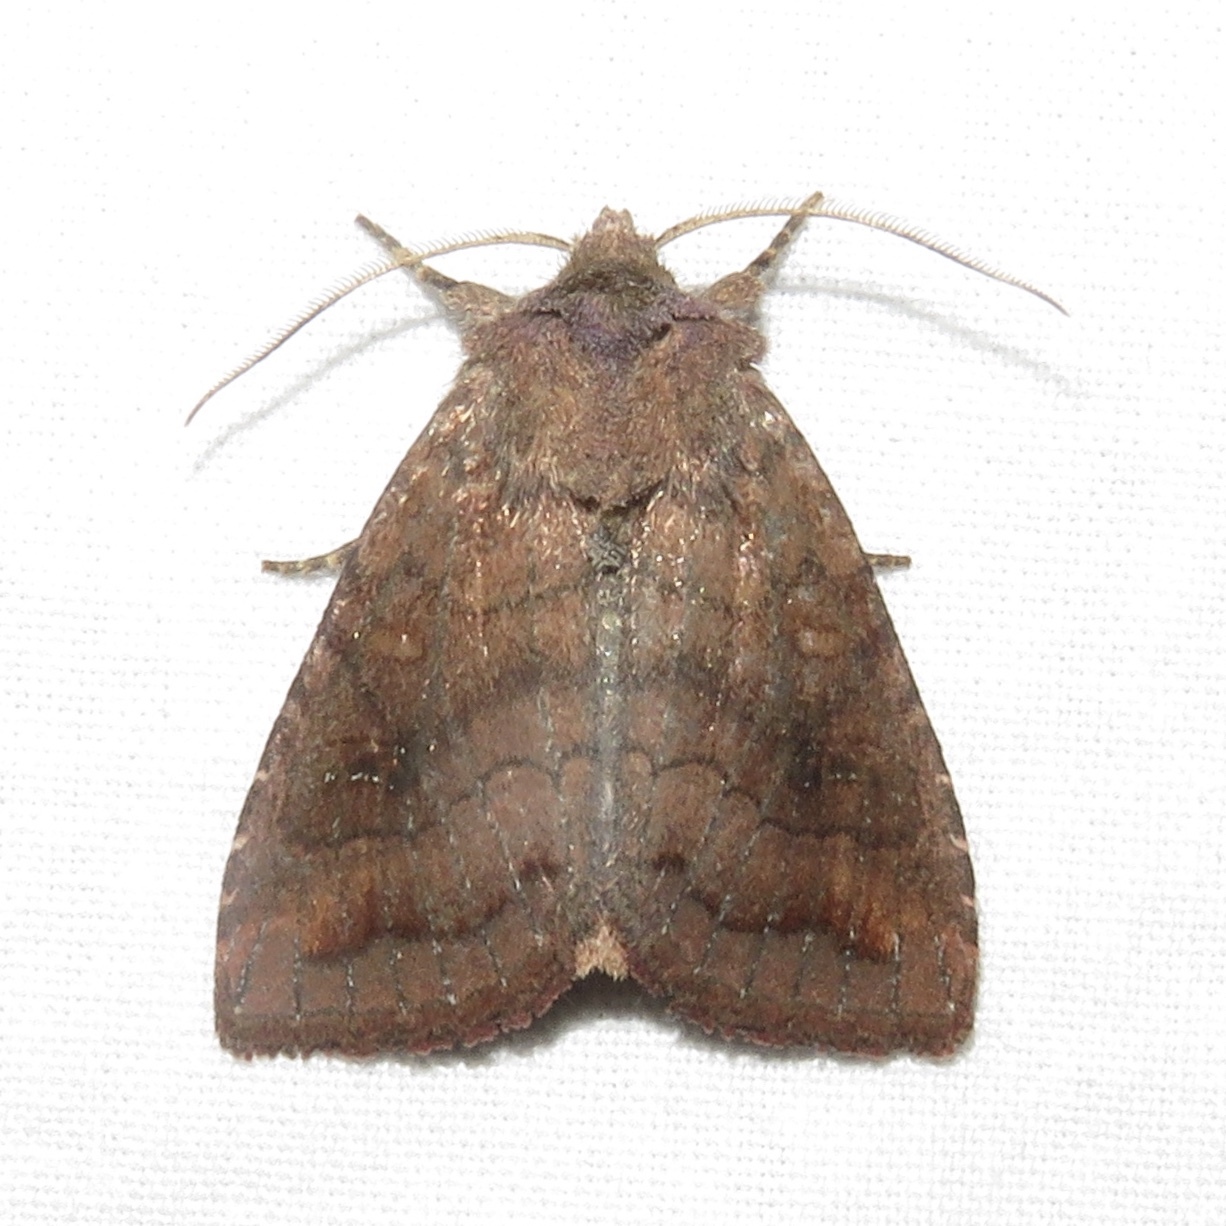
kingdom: Animalia
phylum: Arthropoda
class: Insecta
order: Lepidoptera
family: Noctuidae
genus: Tricholita
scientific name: Tricholita signata
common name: Signate quaker
